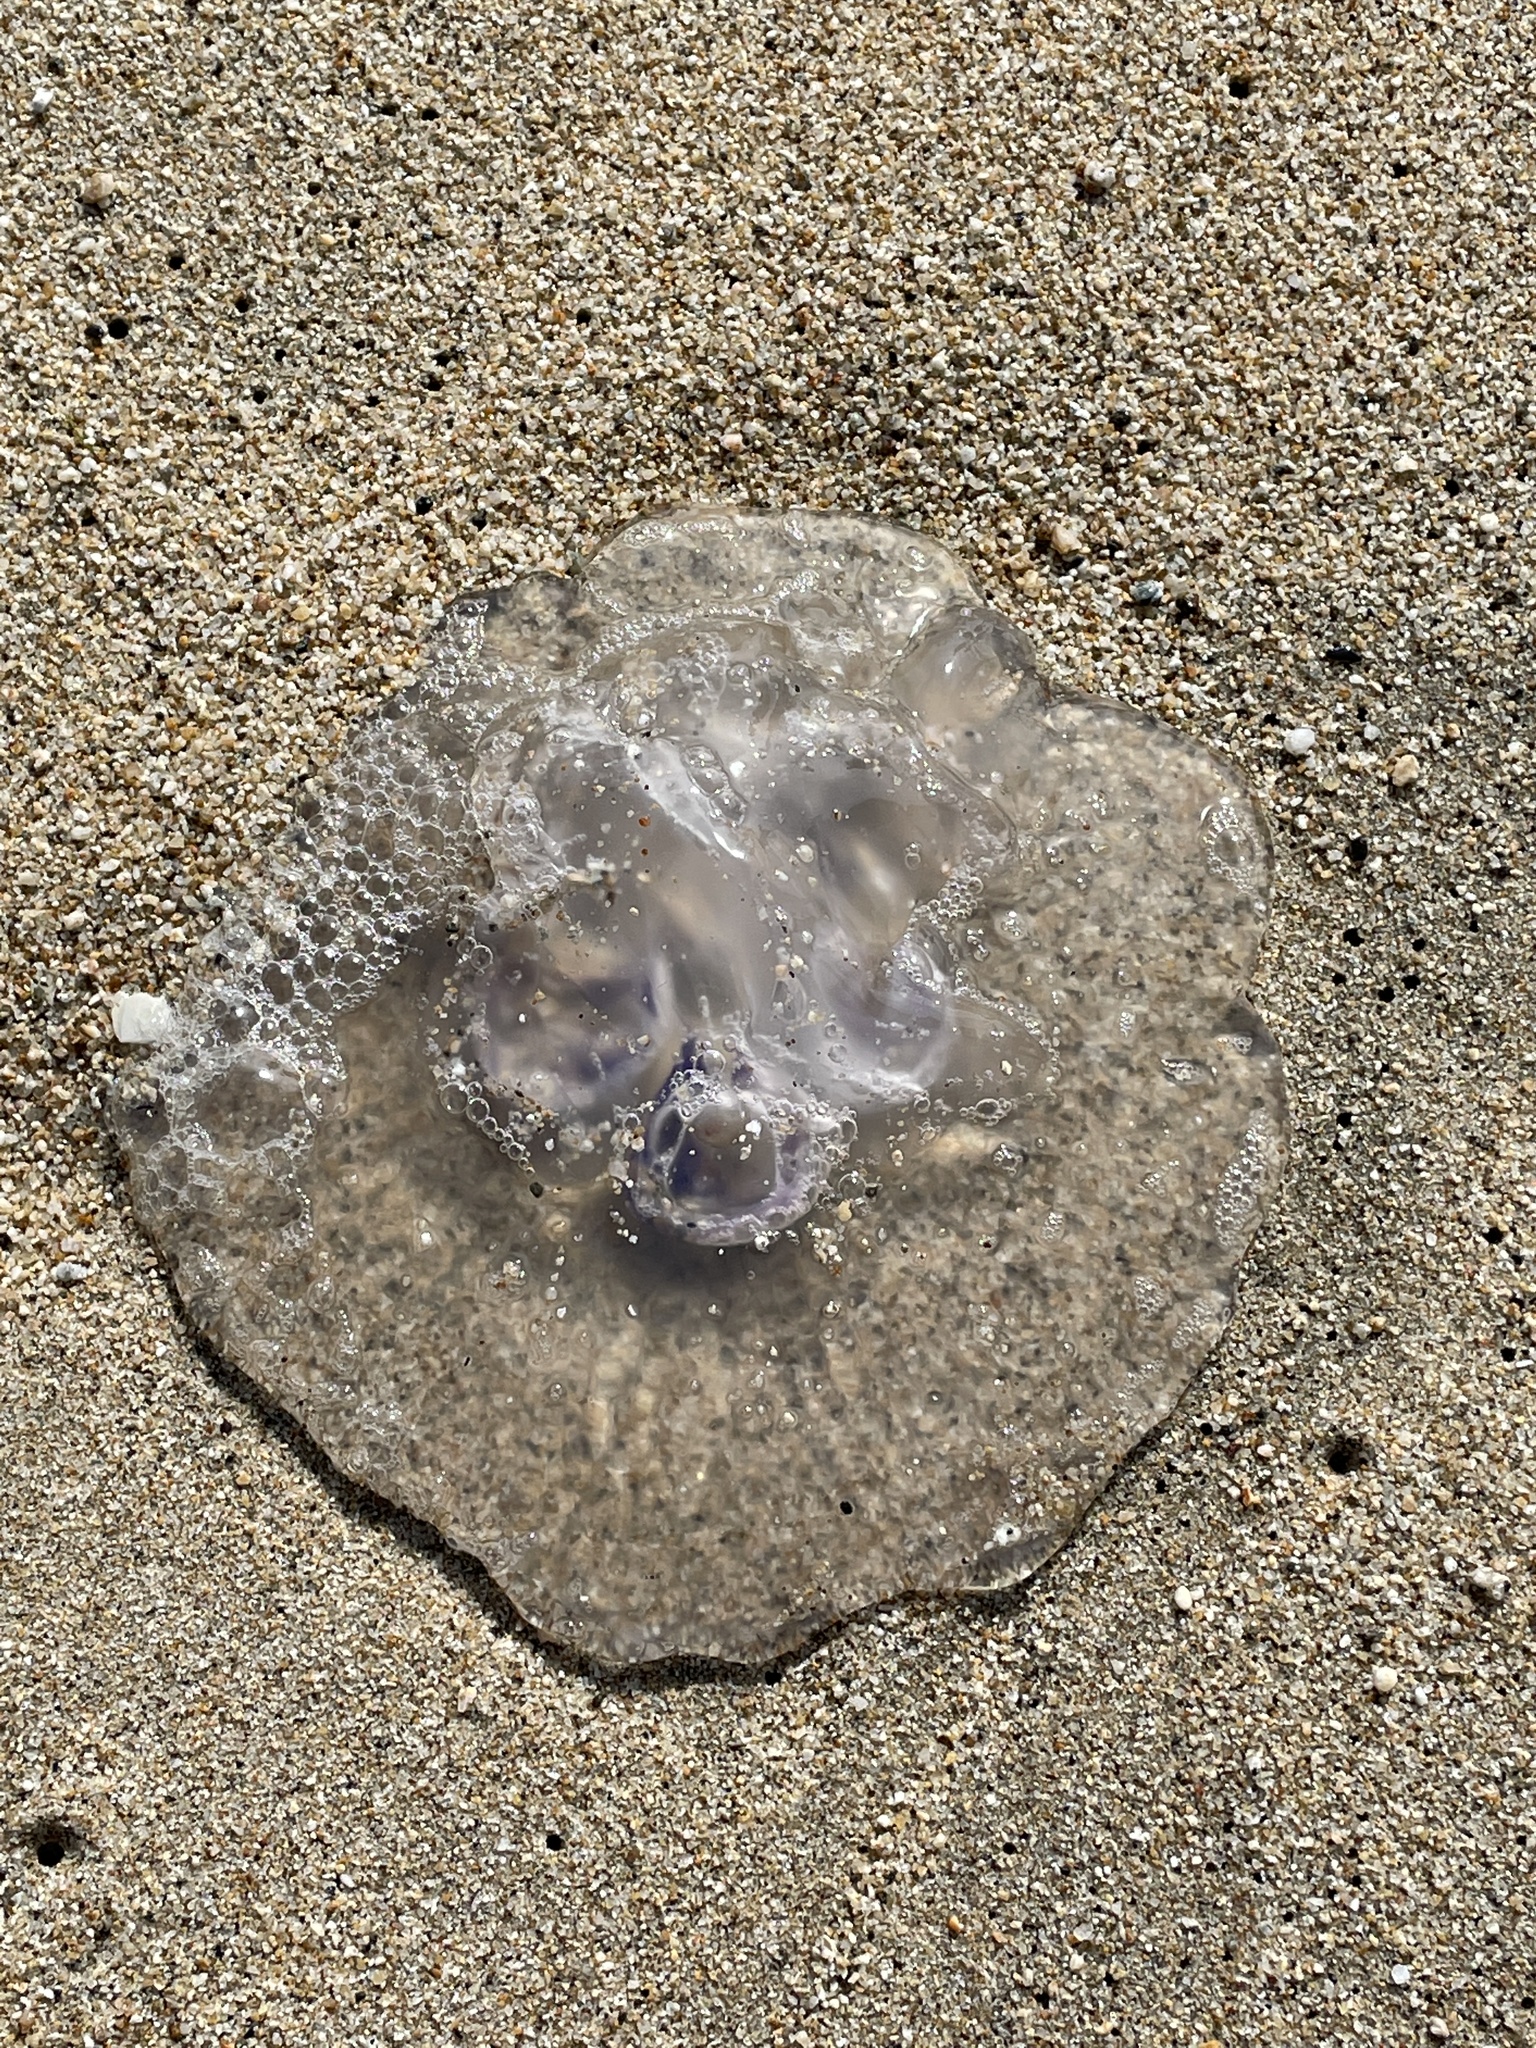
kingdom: Animalia
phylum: Cnidaria
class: Scyphozoa
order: Semaeostomeae
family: Ulmaridae
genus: Aurelia
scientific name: Aurelia labiata
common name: Pacific moon jelly
